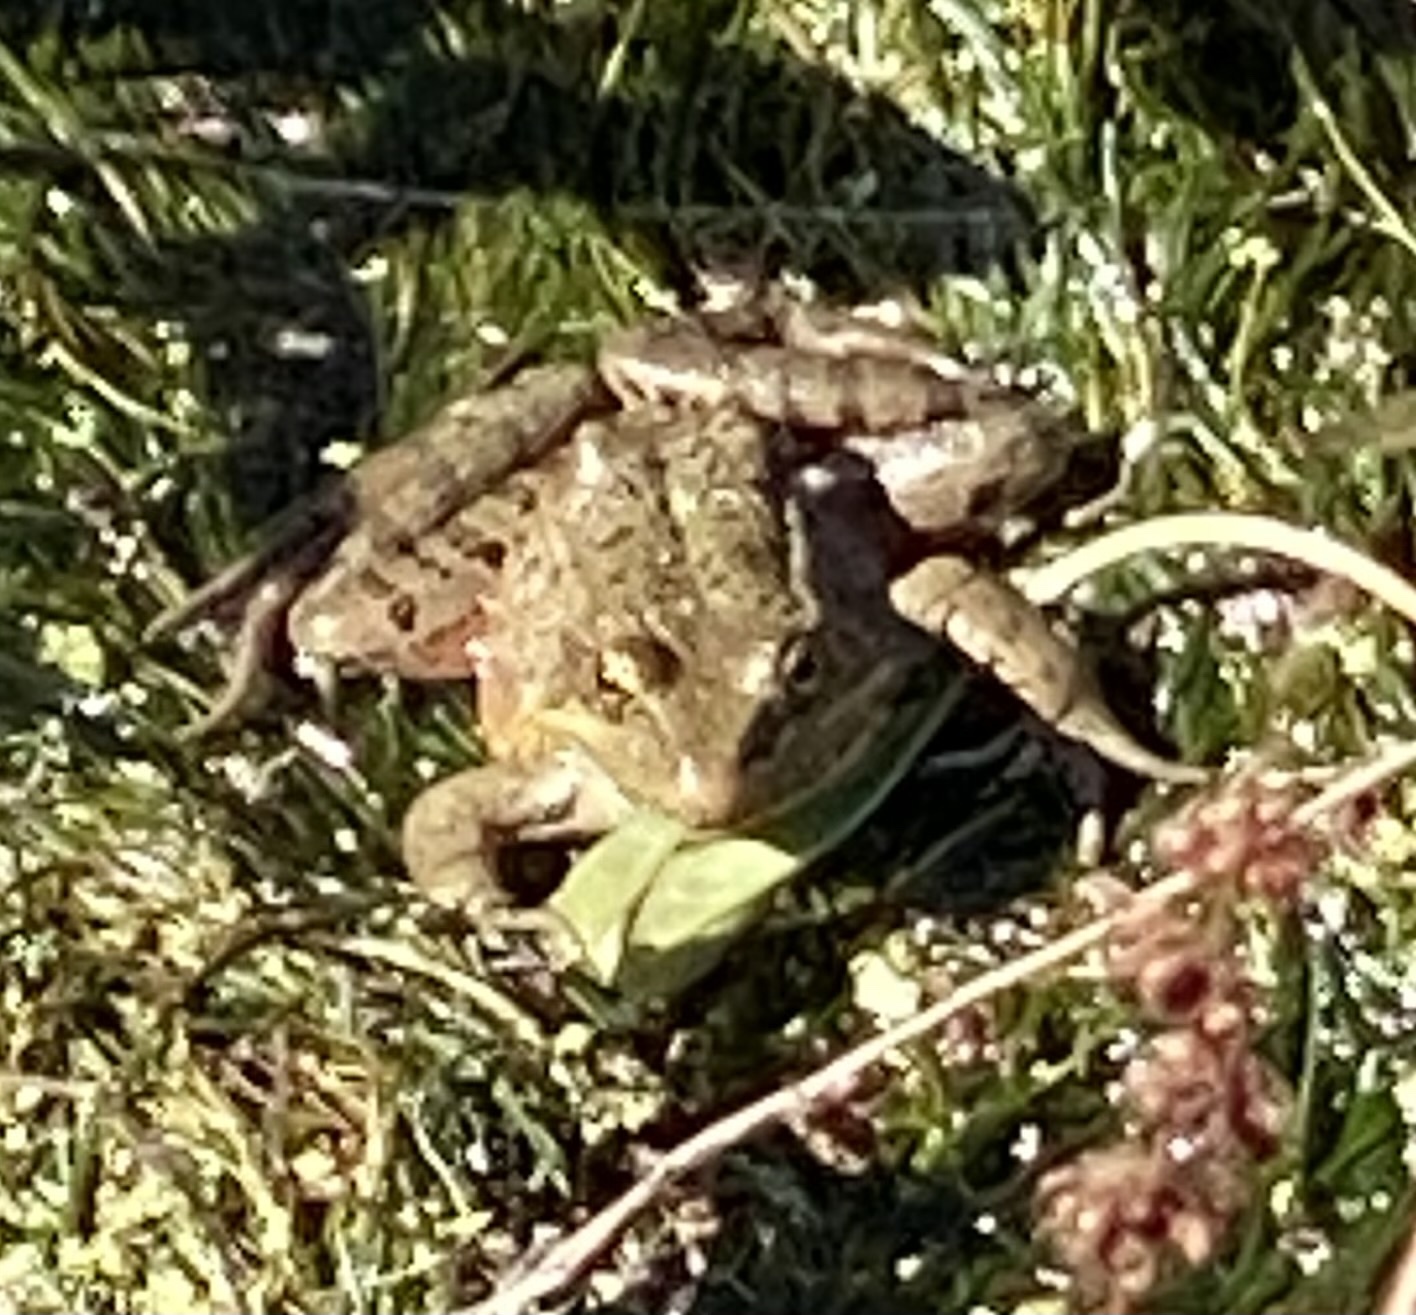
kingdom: Animalia
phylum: Chordata
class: Amphibia
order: Anura
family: Ranidae
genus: Rana
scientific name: Rana draytonii
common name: California red-legged frog
